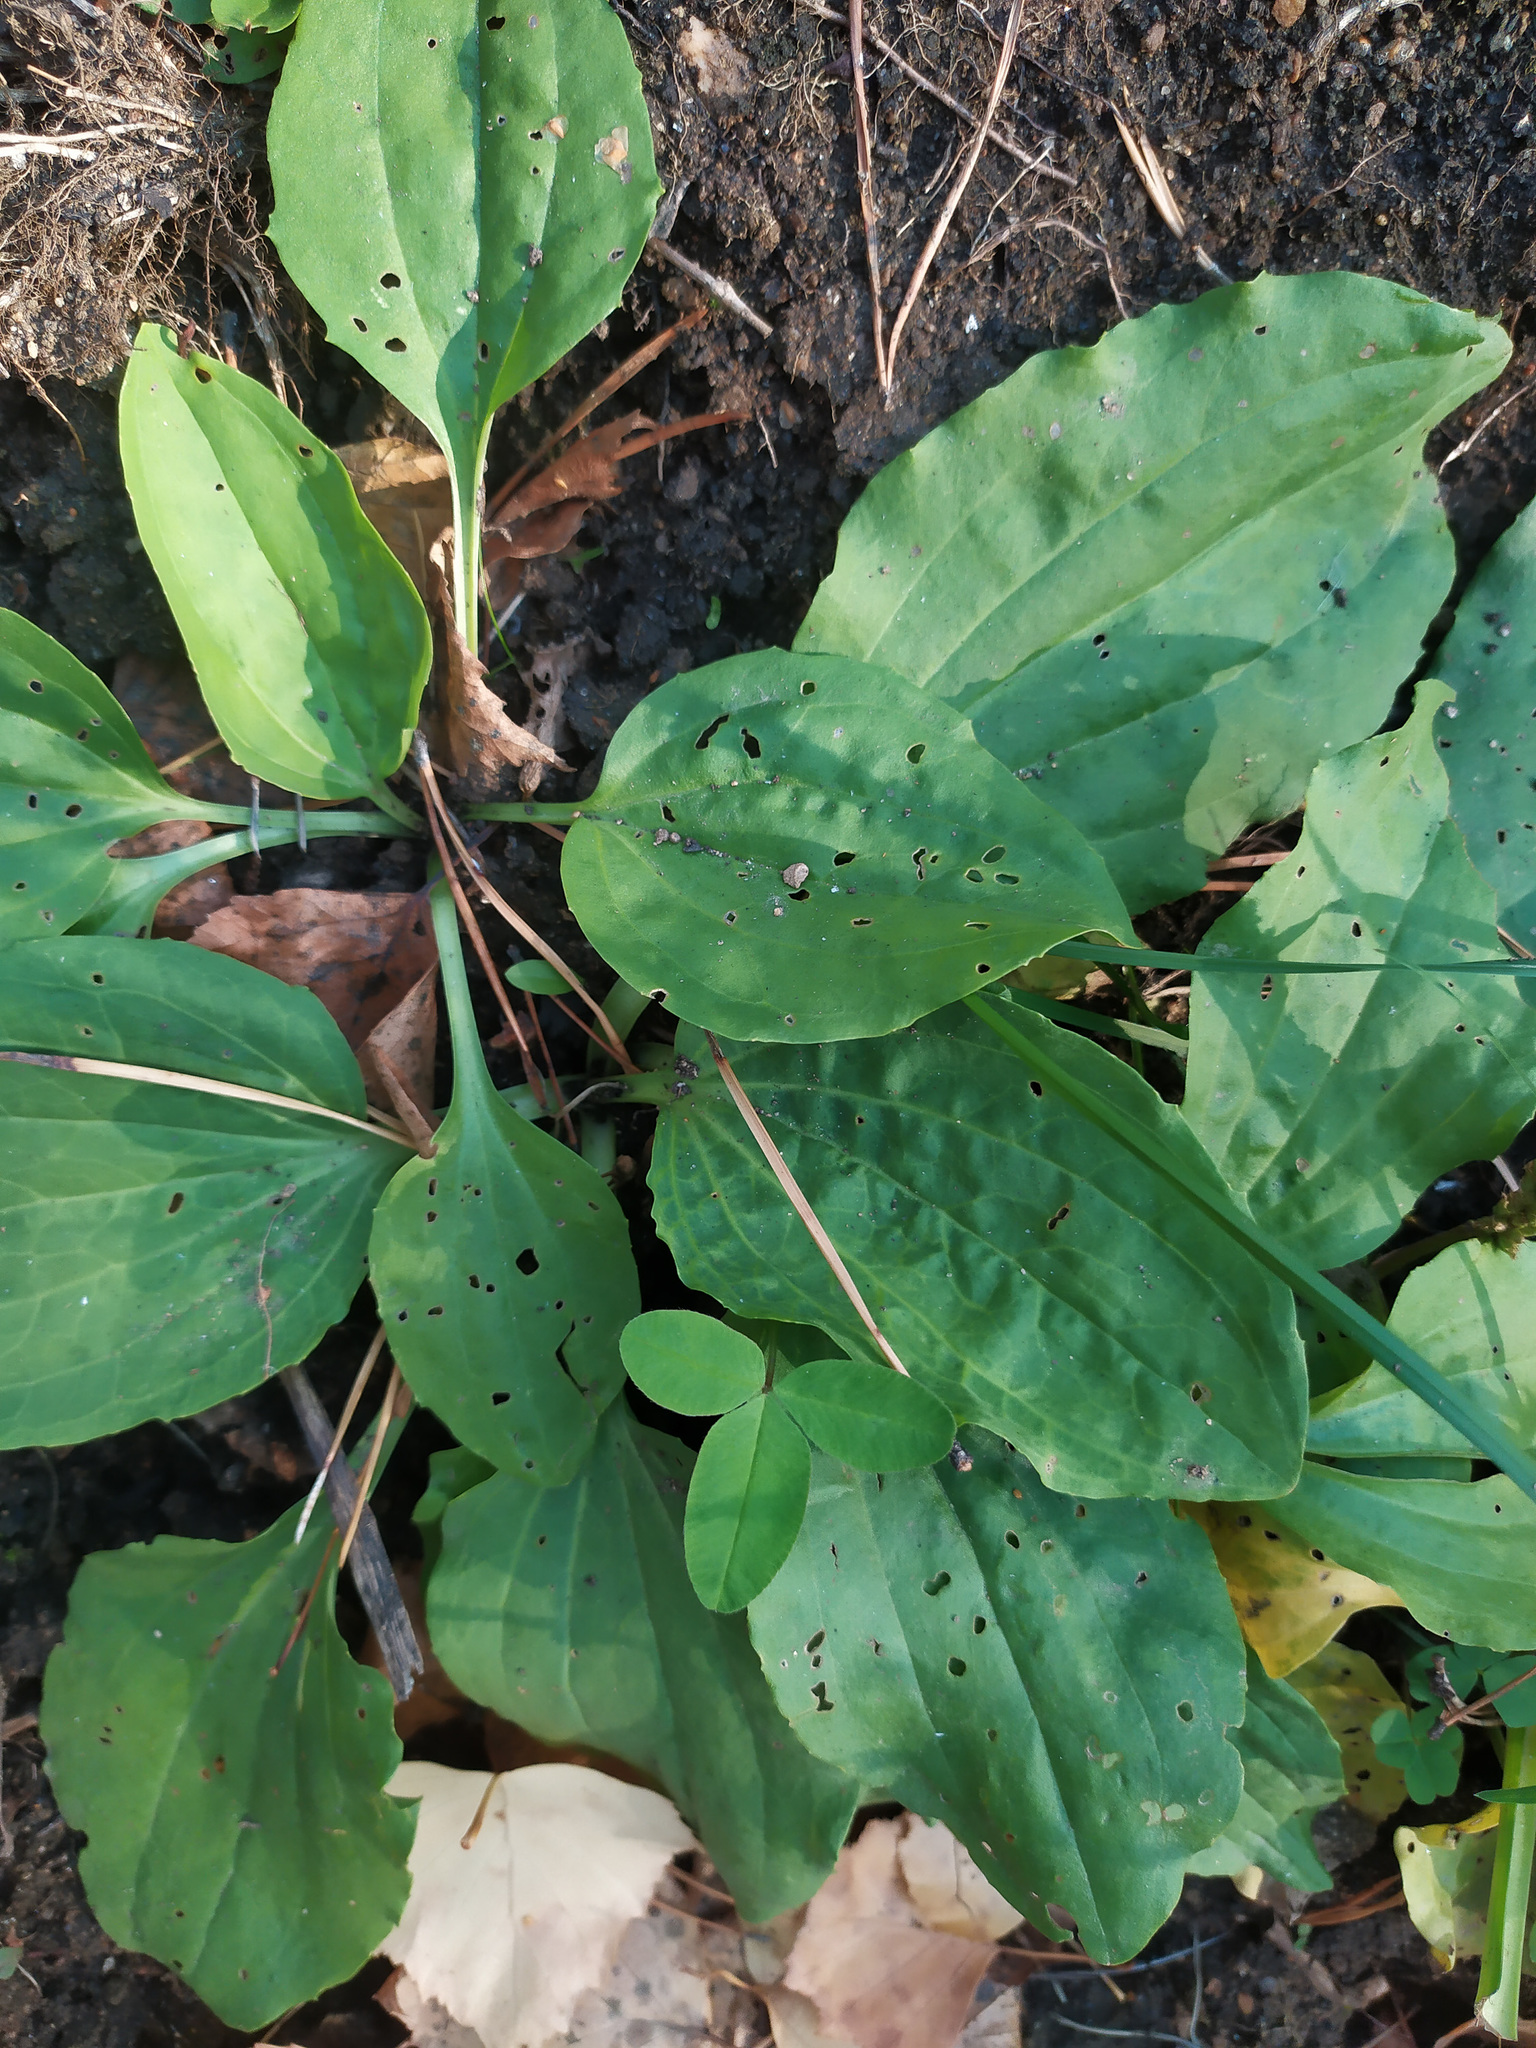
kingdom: Plantae
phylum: Tracheophyta
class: Magnoliopsida
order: Lamiales
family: Plantaginaceae
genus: Plantago
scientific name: Plantago major
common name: Common plantain
